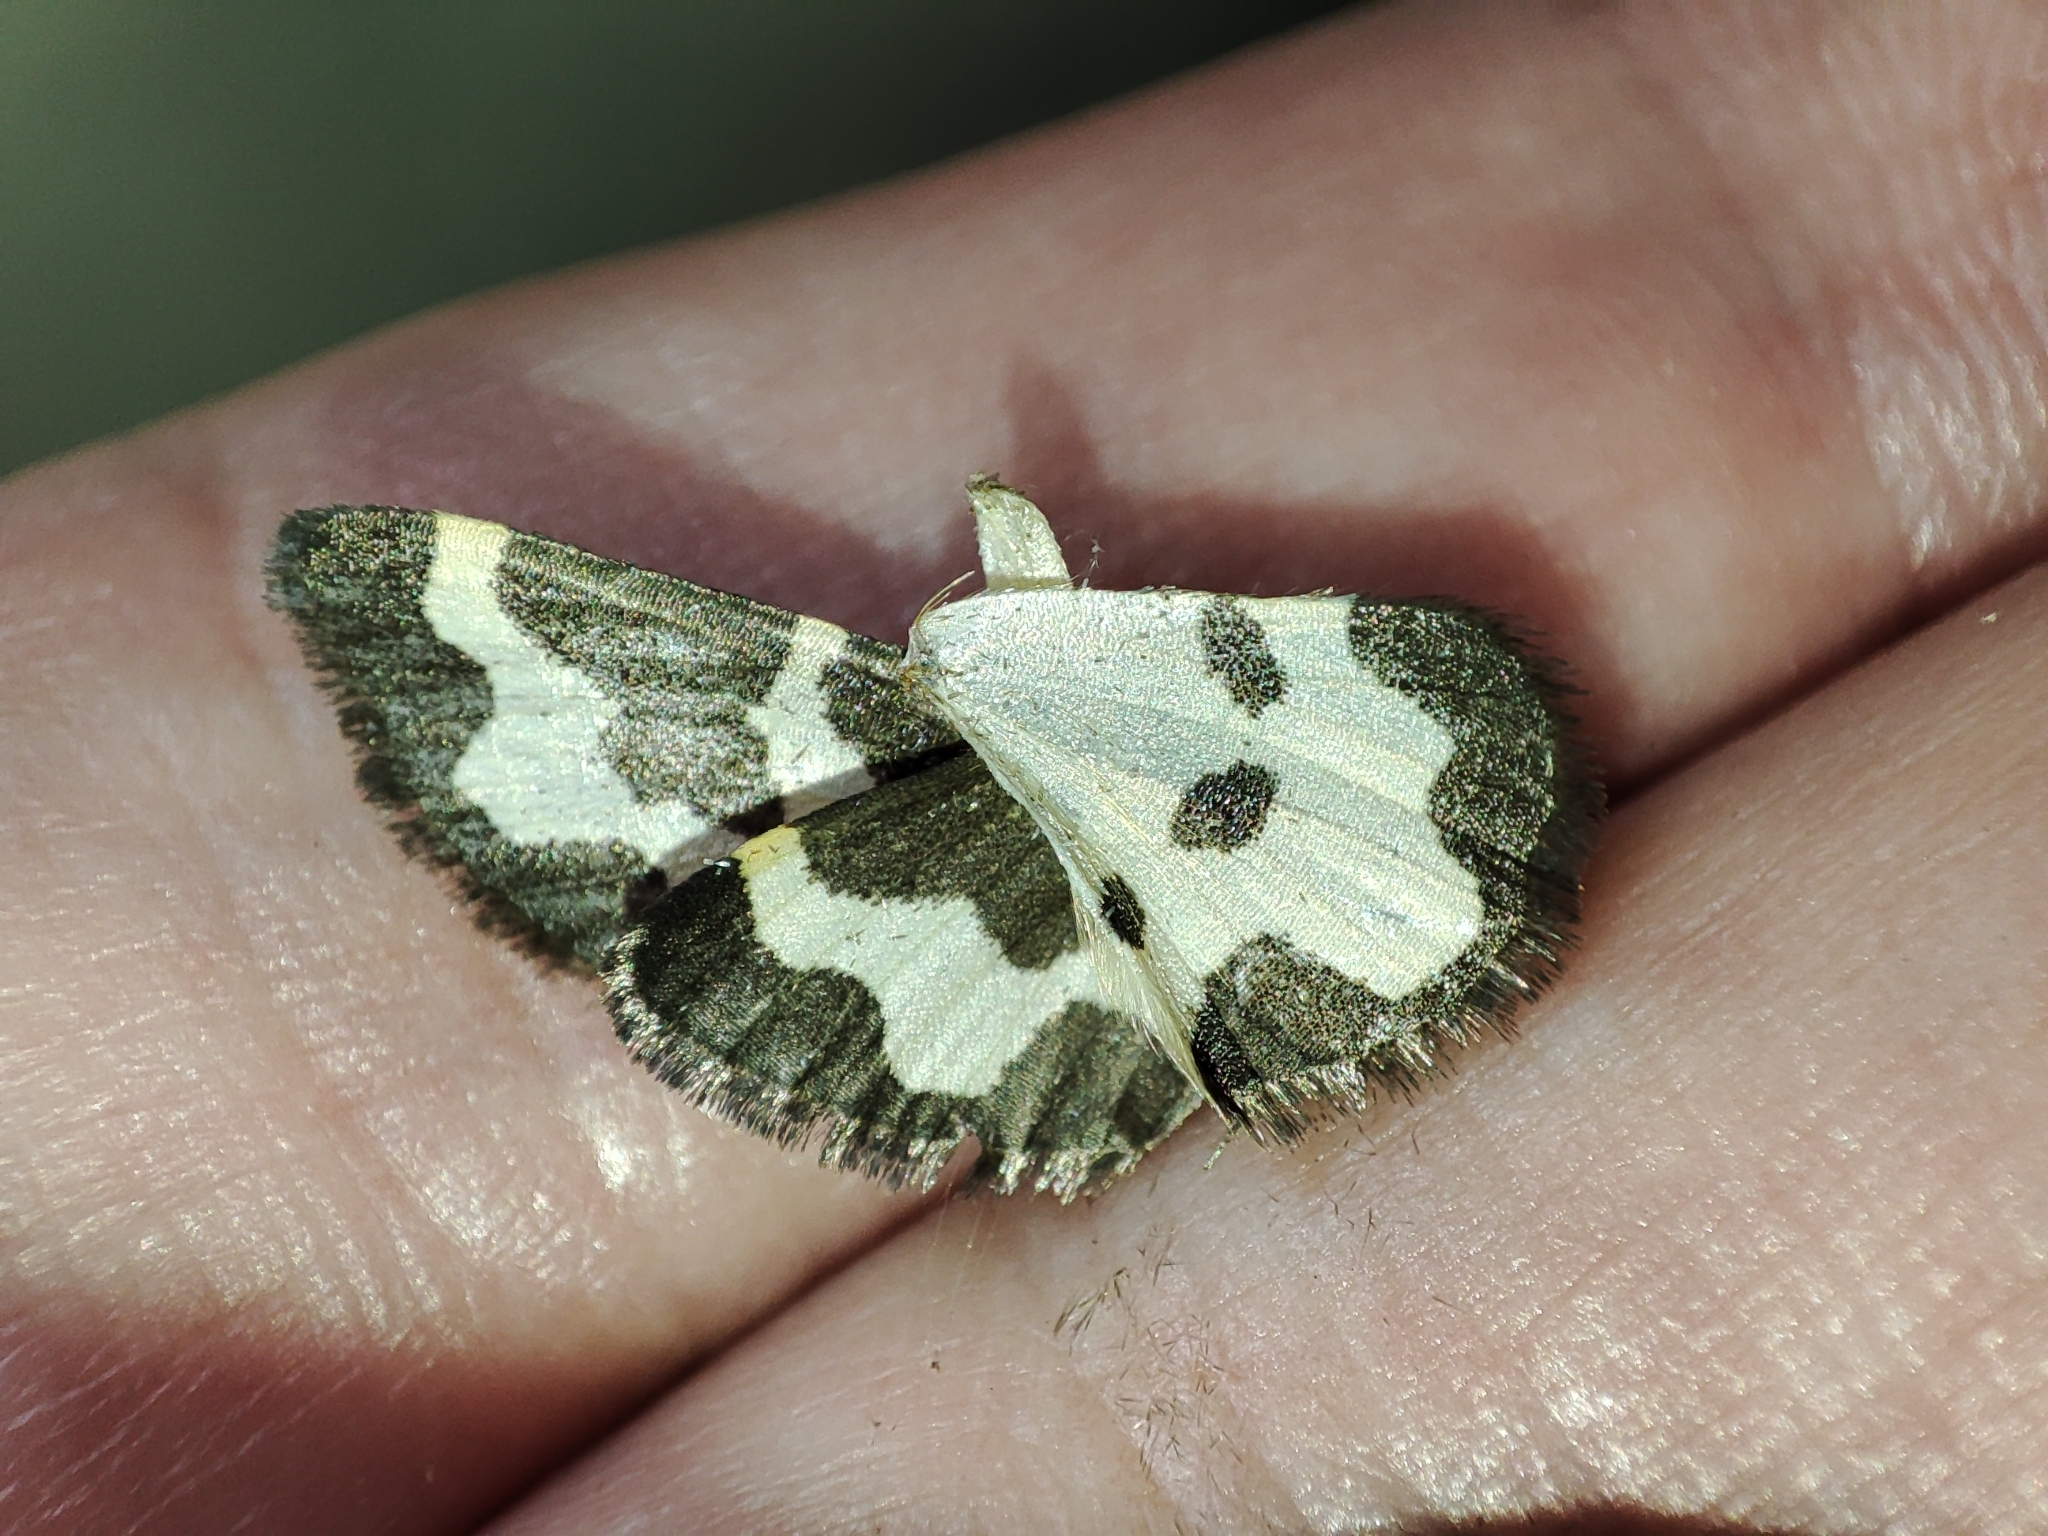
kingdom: Animalia
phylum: Arthropoda
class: Insecta
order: Lepidoptera
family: Geometridae
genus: Lomaspilis
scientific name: Lomaspilis marginata
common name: Clouded border
